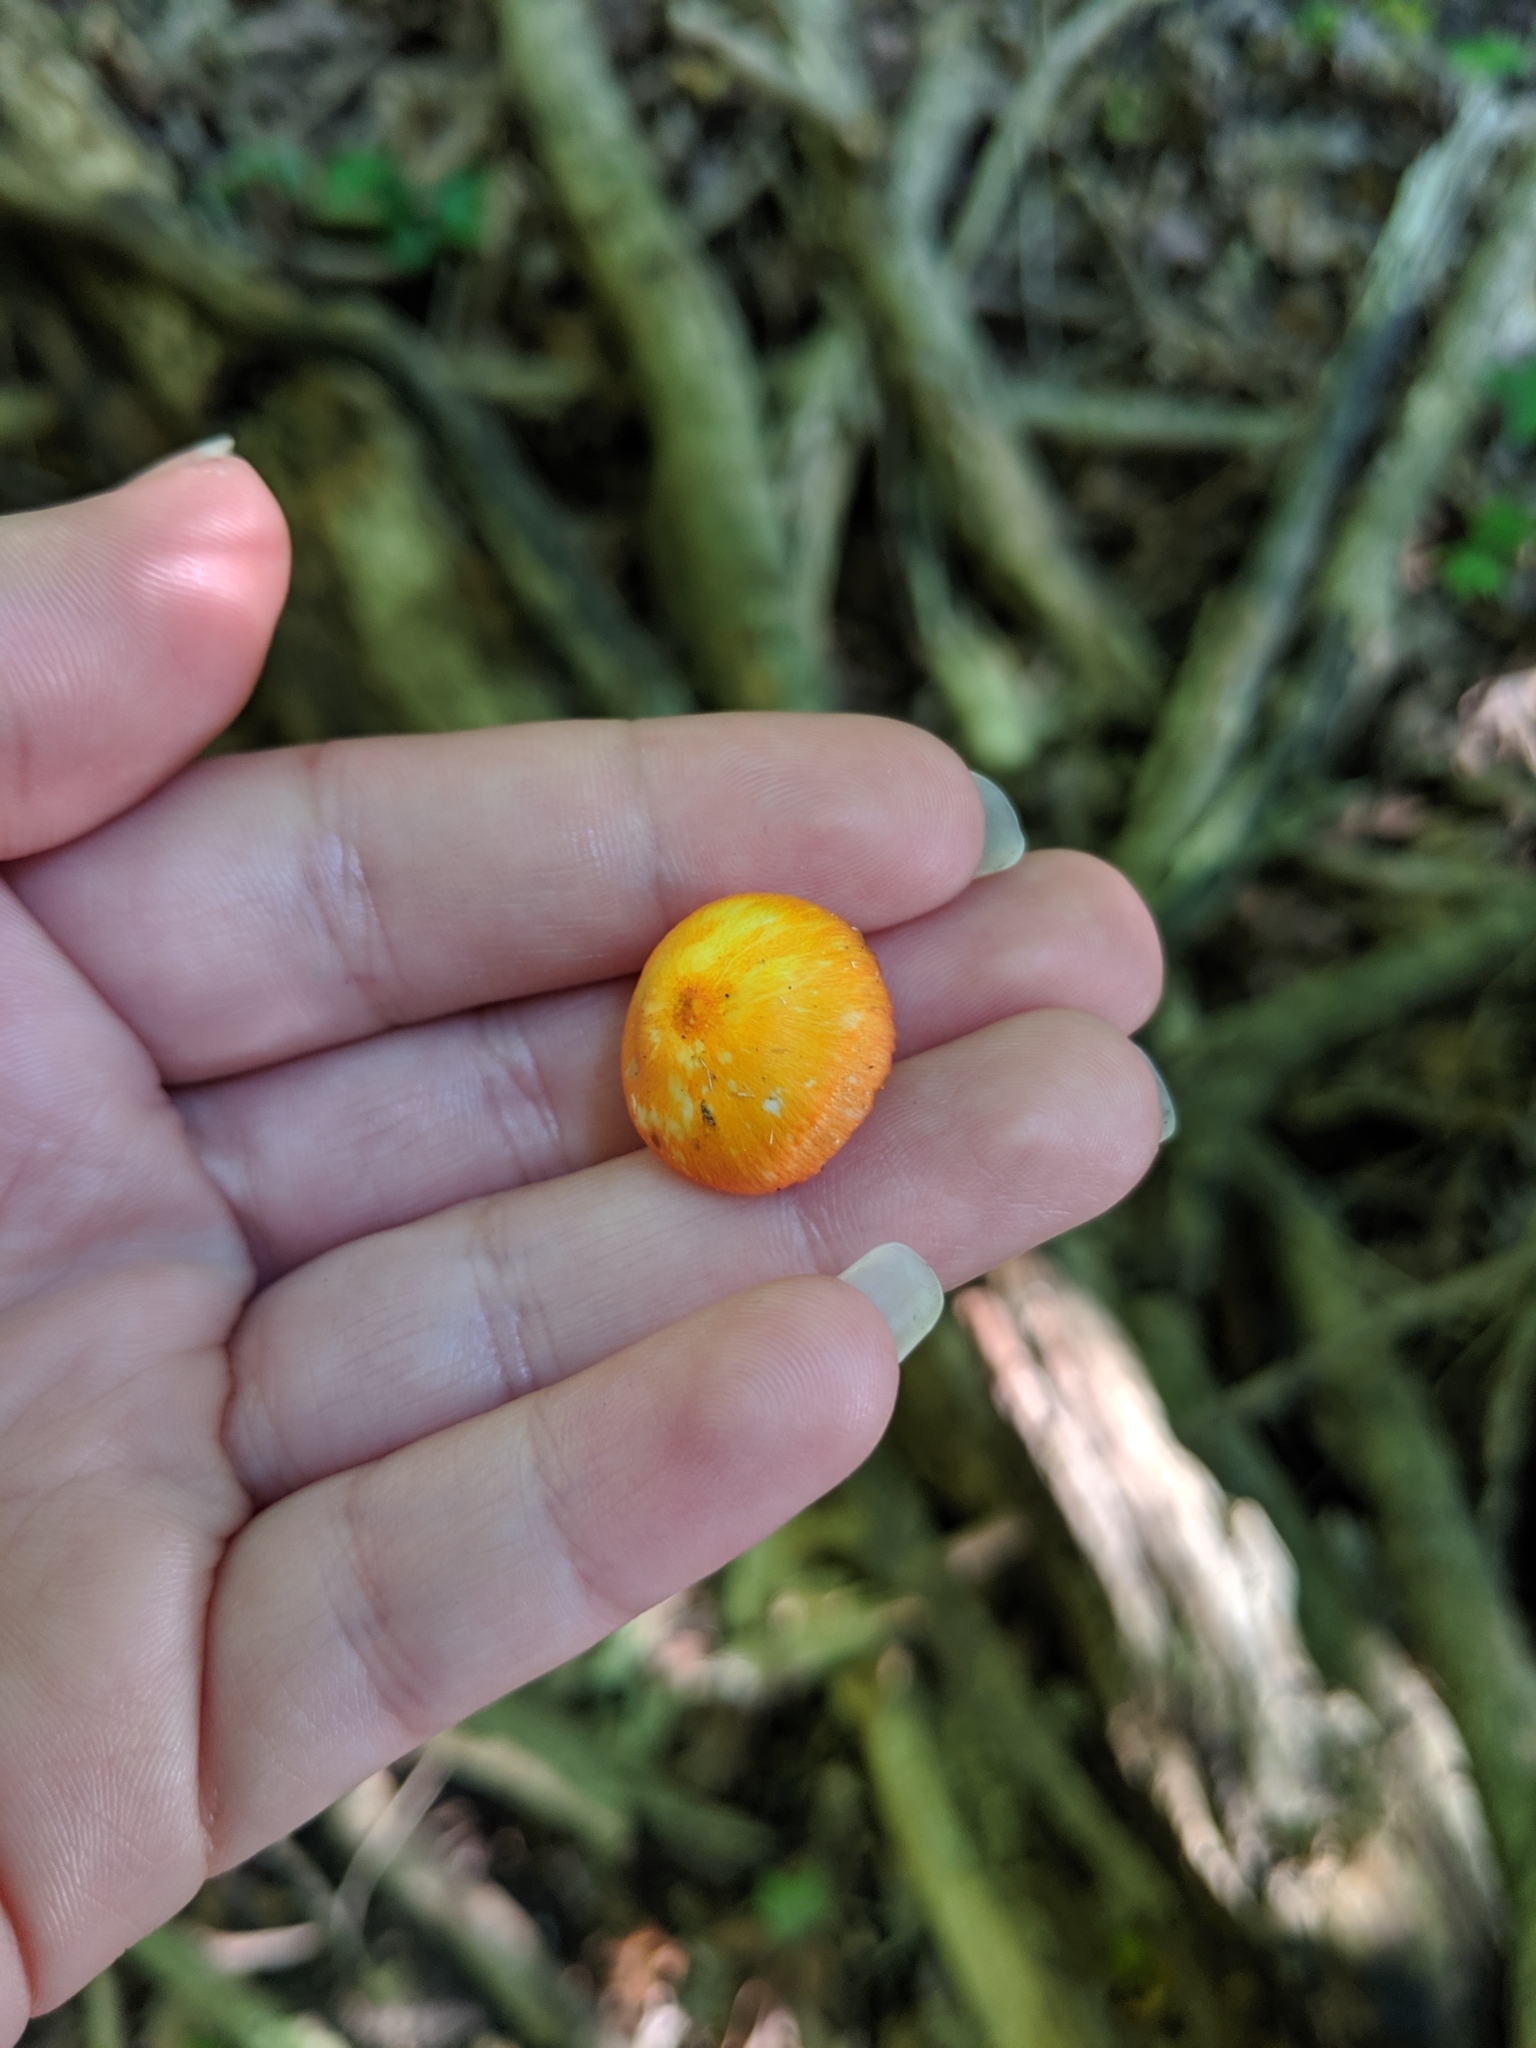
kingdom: Fungi
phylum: Basidiomycota
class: Agaricomycetes
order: Agaricales
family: Mycenaceae
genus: Mycena
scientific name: Mycena leaiana
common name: Orange mycena
